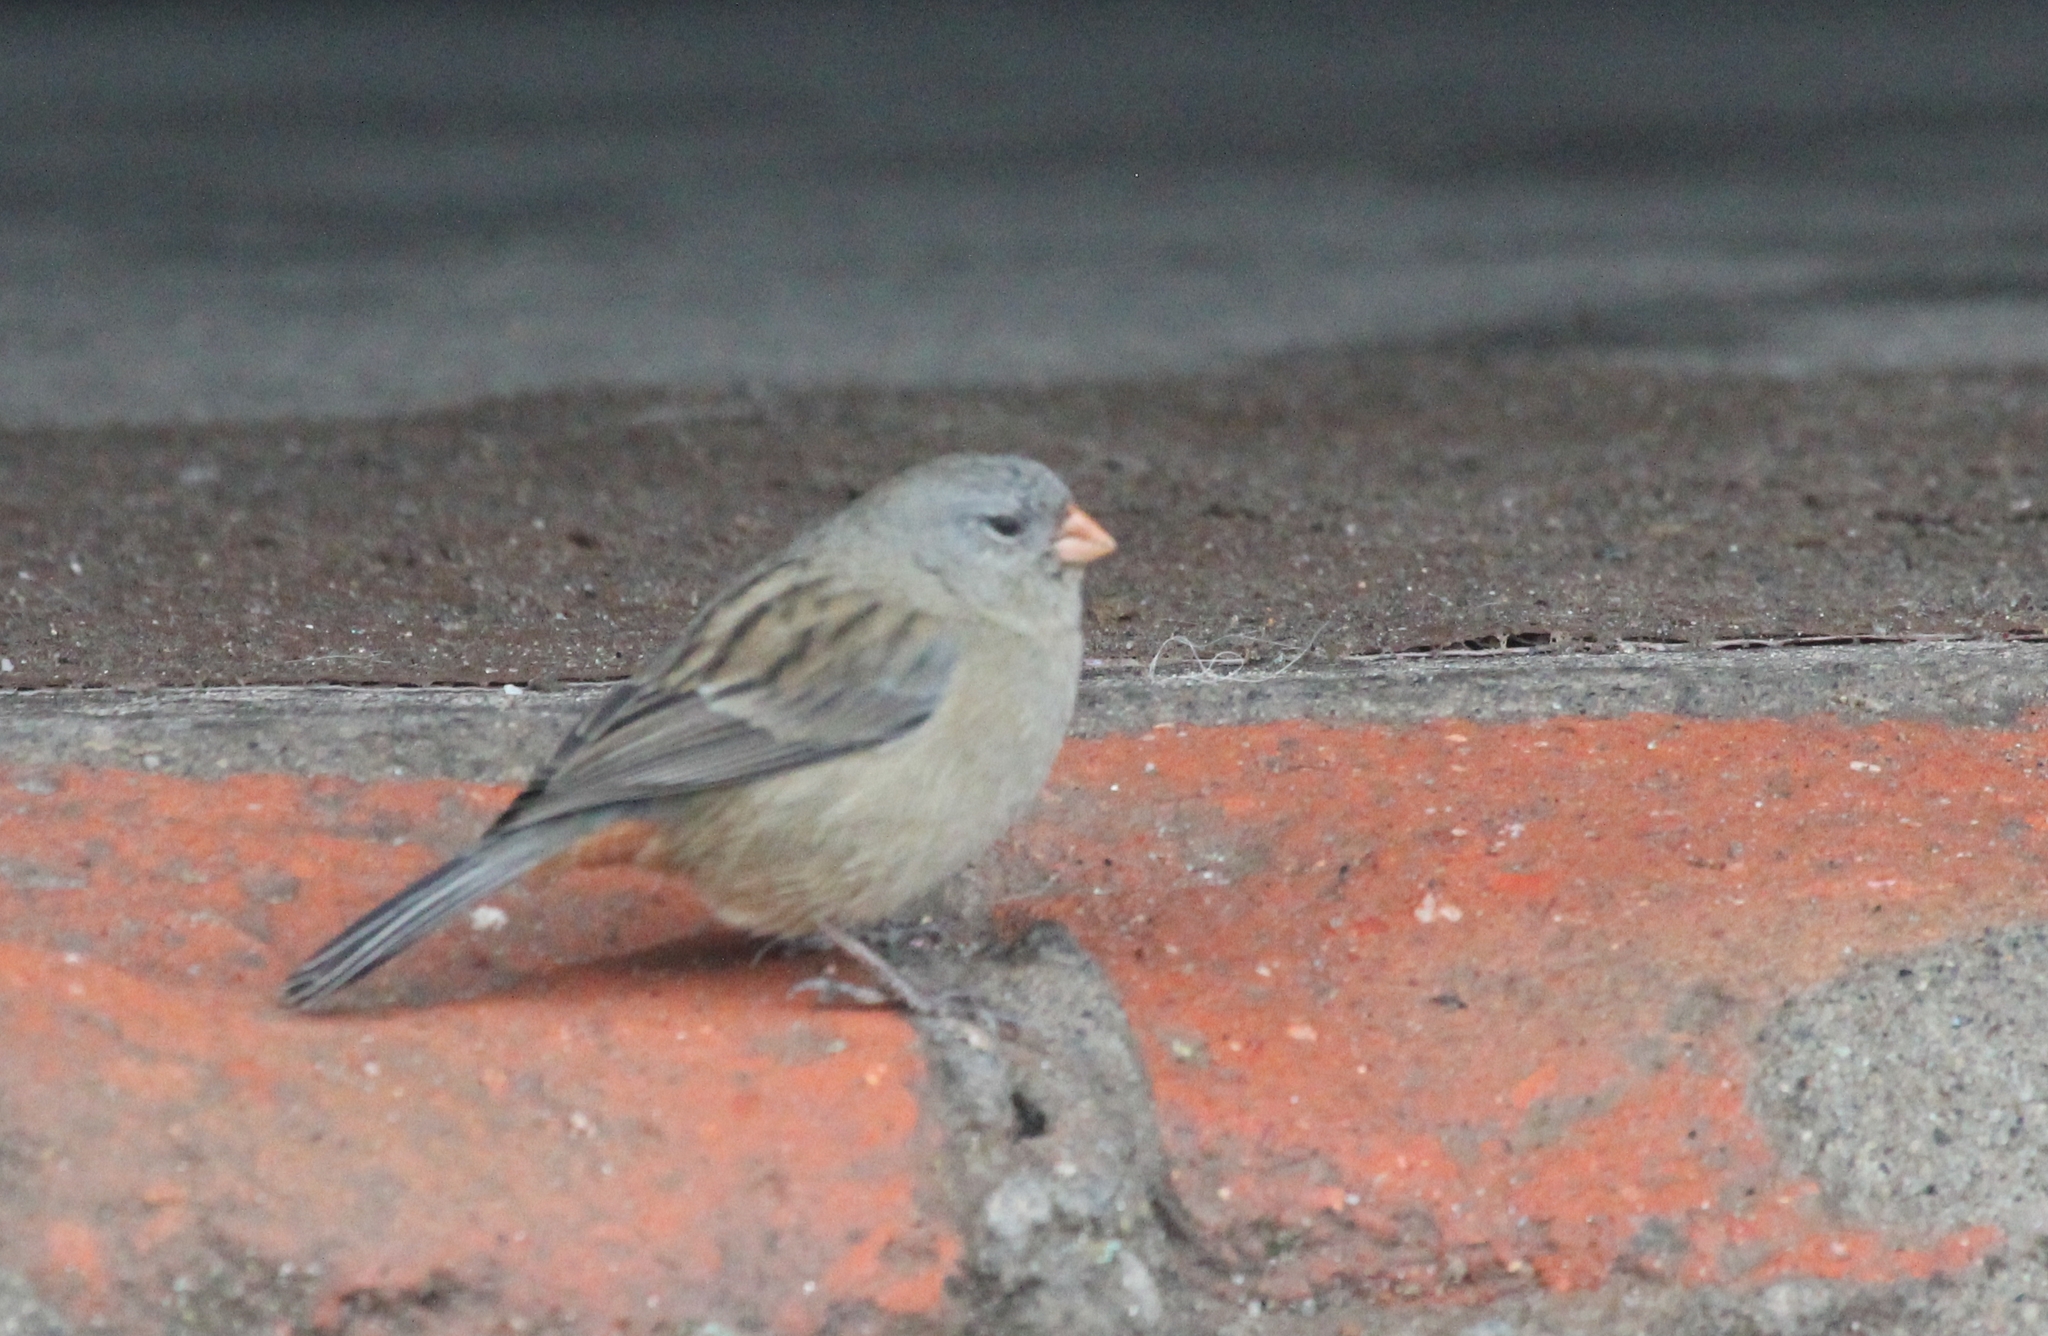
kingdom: Animalia
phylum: Chordata
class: Aves
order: Passeriformes
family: Thraupidae
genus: Catamenia
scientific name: Catamenia inornata
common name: Plain-colored seedeater
